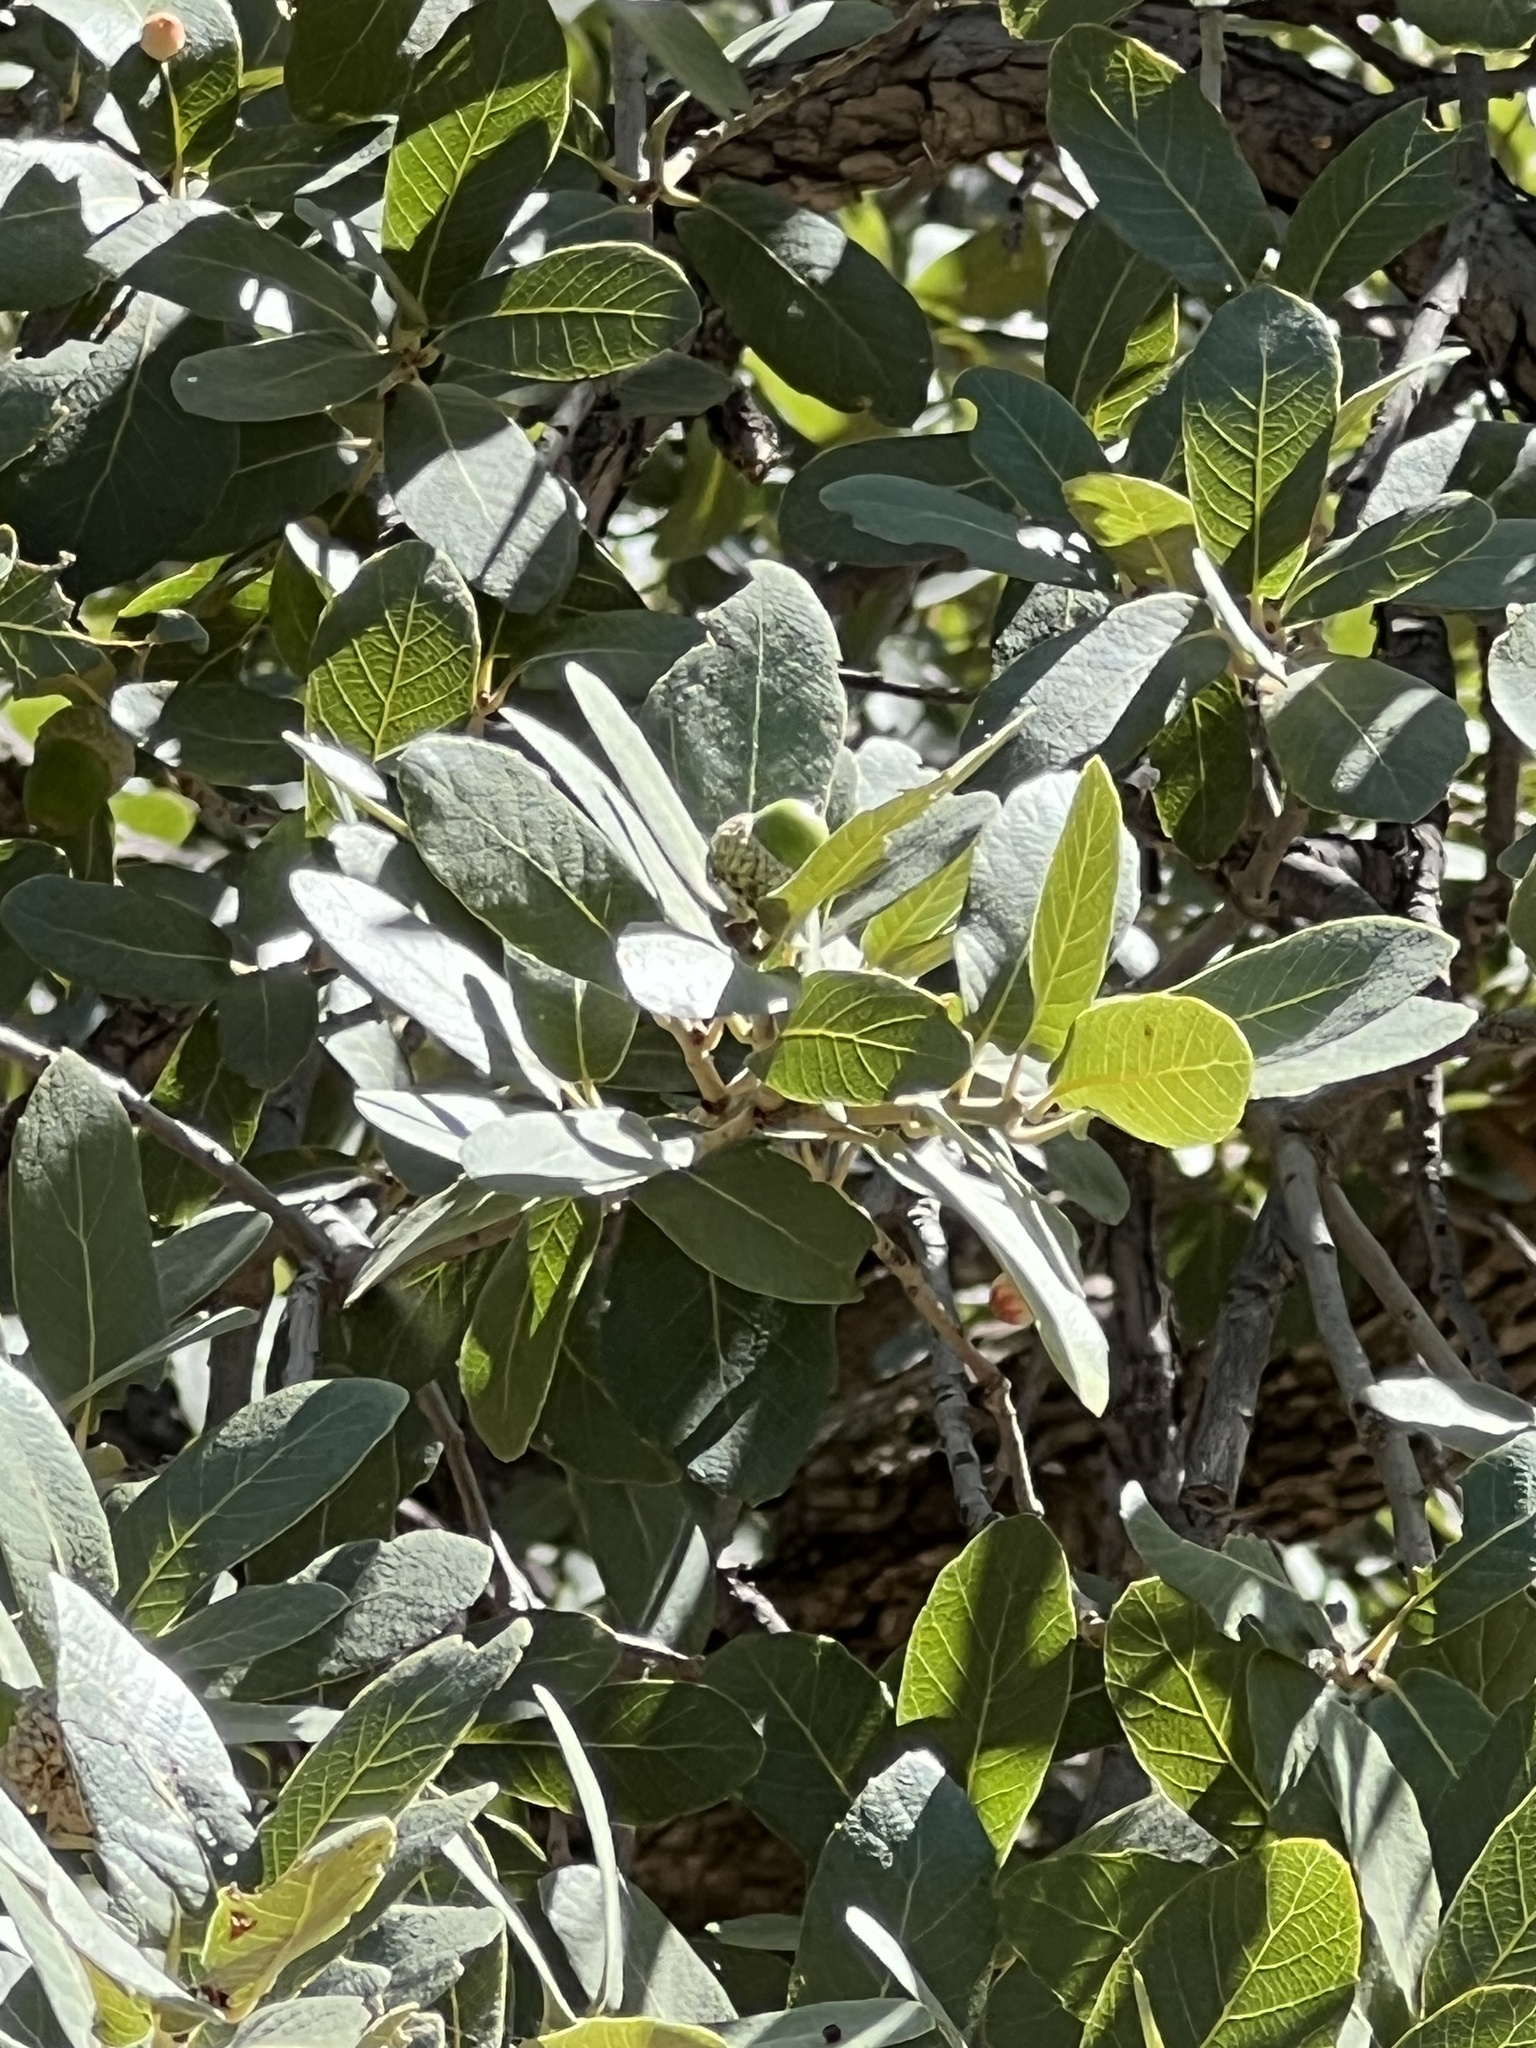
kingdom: Plantae
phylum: Tracheophyta
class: Magnoliopsida
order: Fagales
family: Fagaceae
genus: Quercus
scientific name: Quercus oblongifolia
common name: Mexican blue oak
